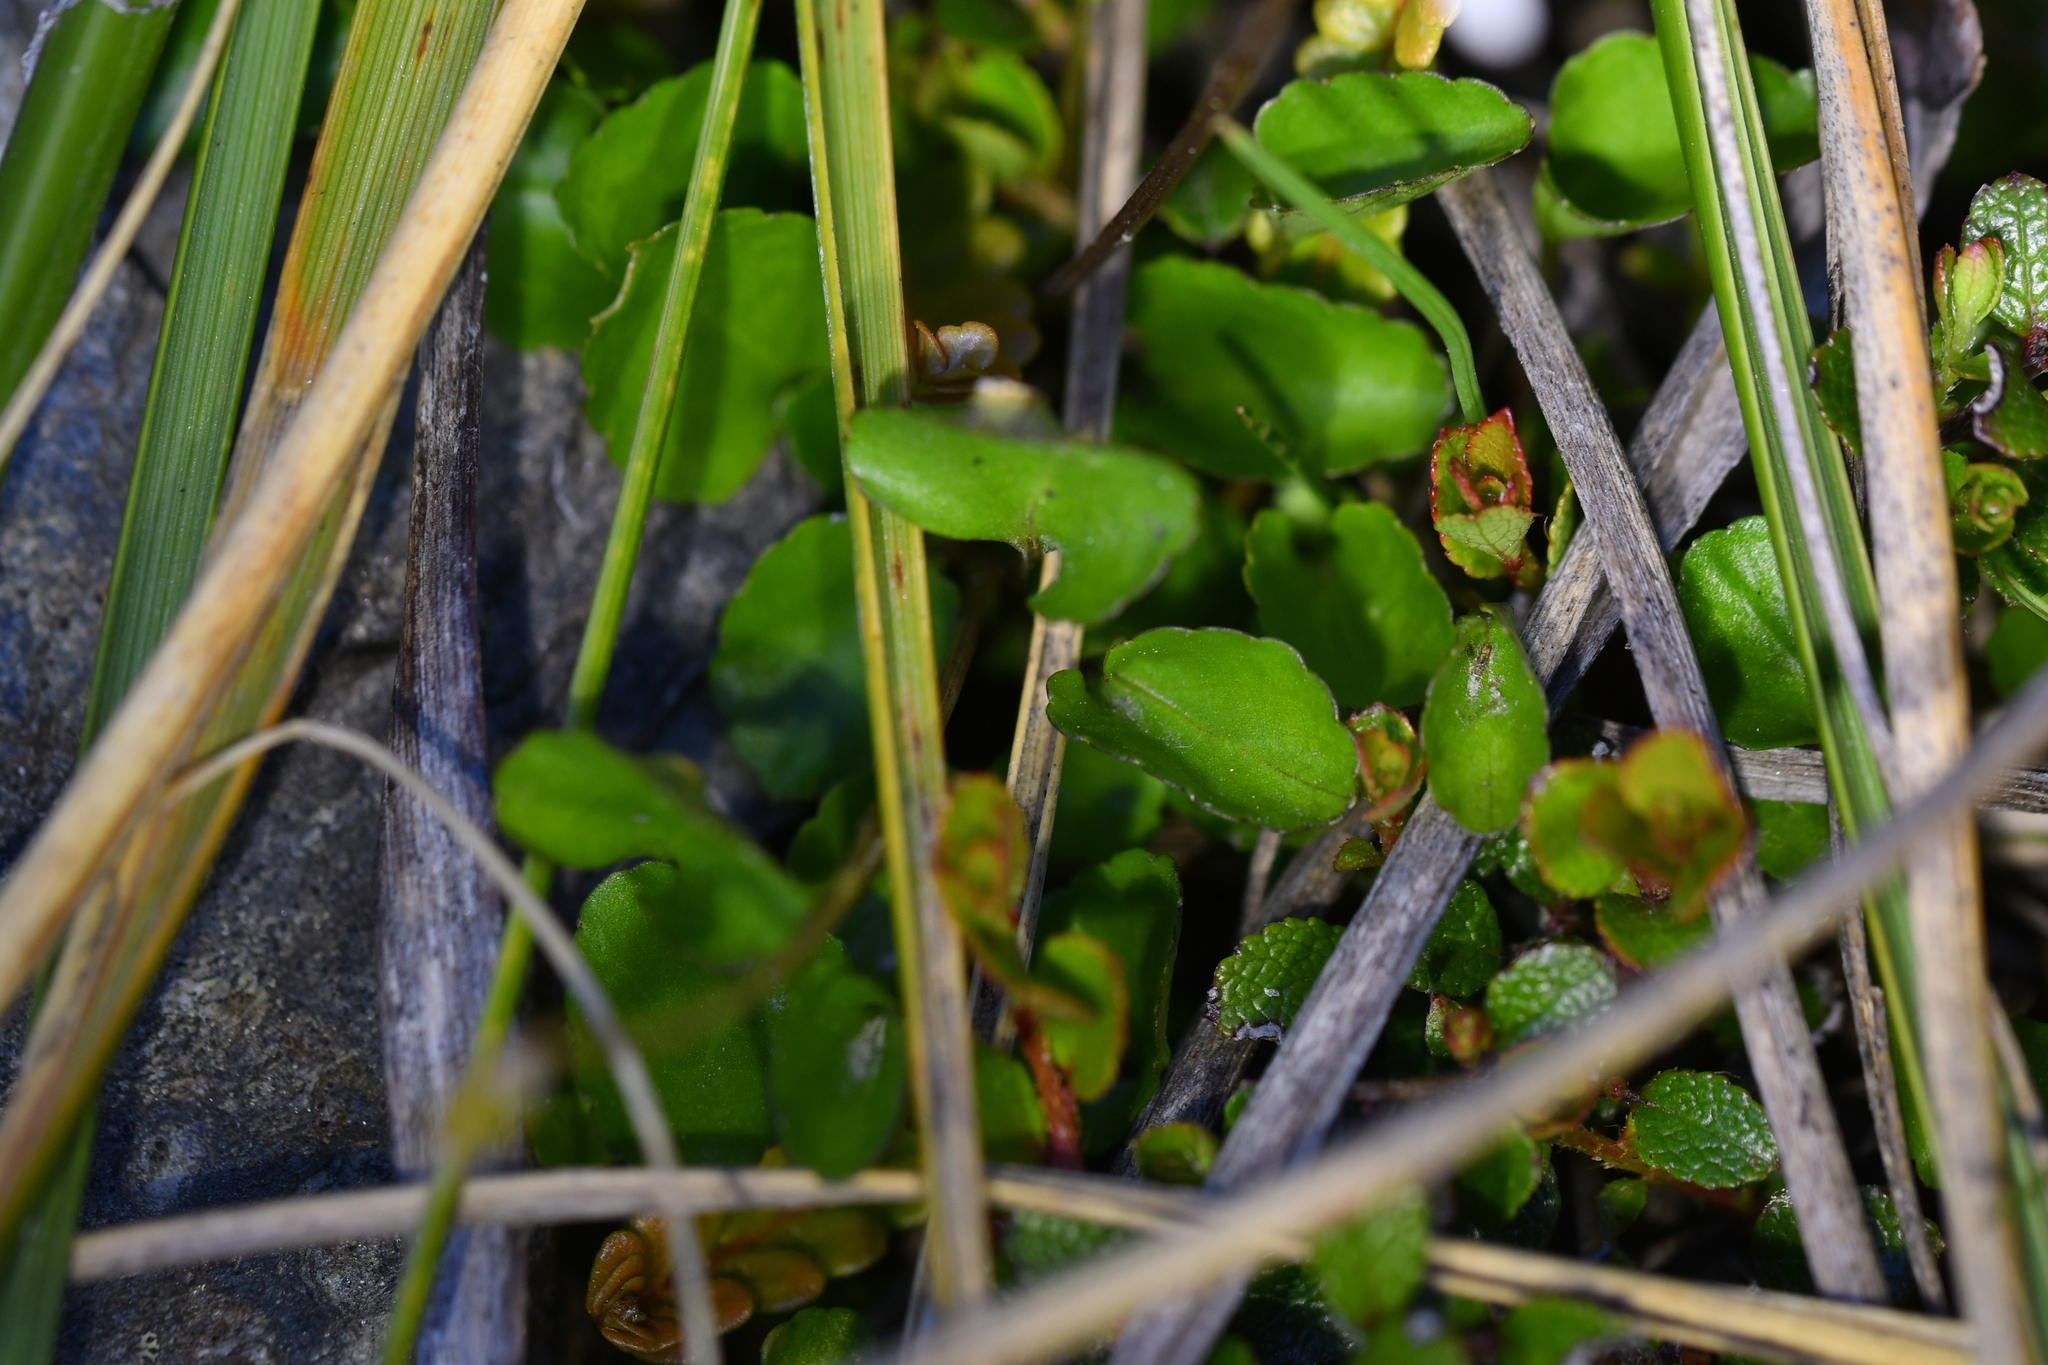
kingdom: Plantae
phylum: Tracheophyta
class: Magnoliopsida
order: Malpighiales
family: Violaceae
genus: Viola
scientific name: Viola cunninghamii
